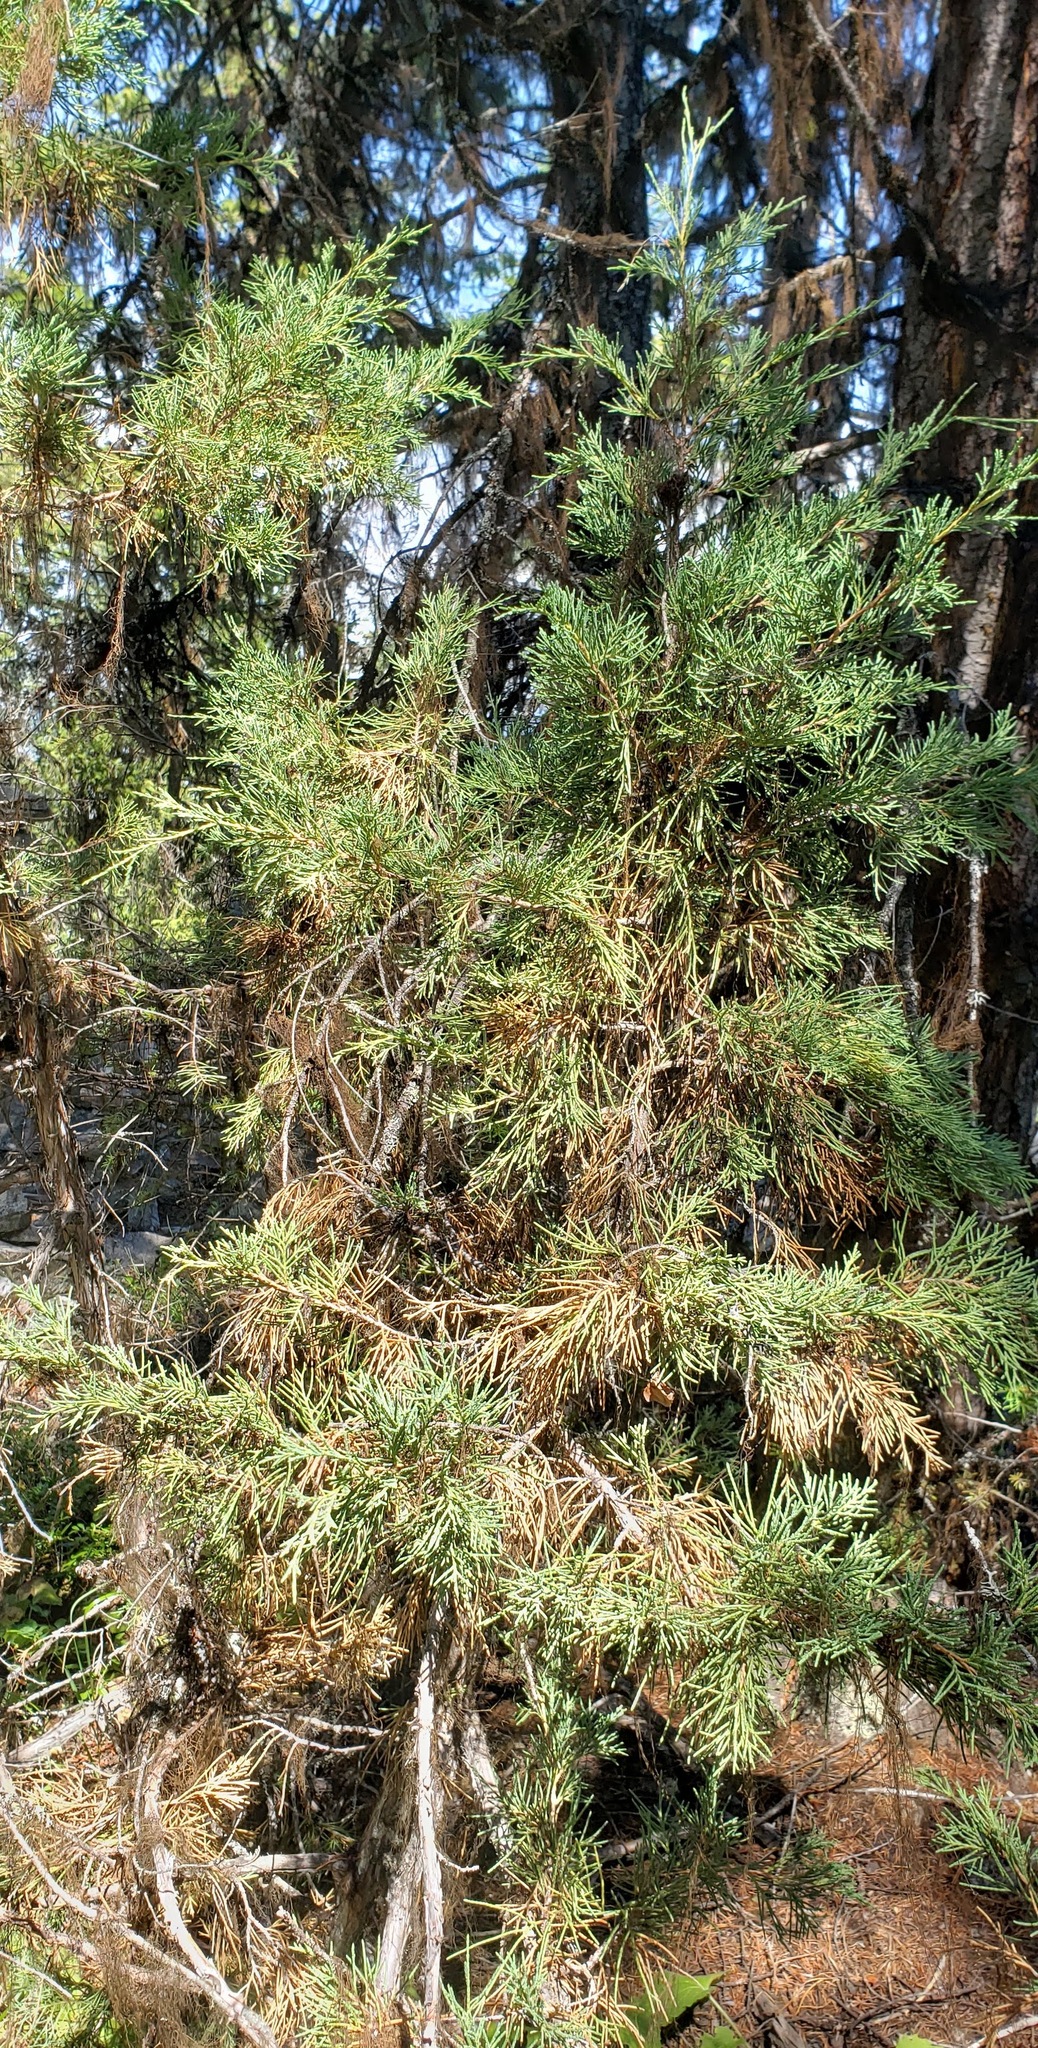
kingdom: Plantae
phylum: Tracheophyta
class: Pinopsida
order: Pinales
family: Cupressaceae
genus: Juniperus
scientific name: Juniperus scopulorum
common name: Rocky mountain juniper
